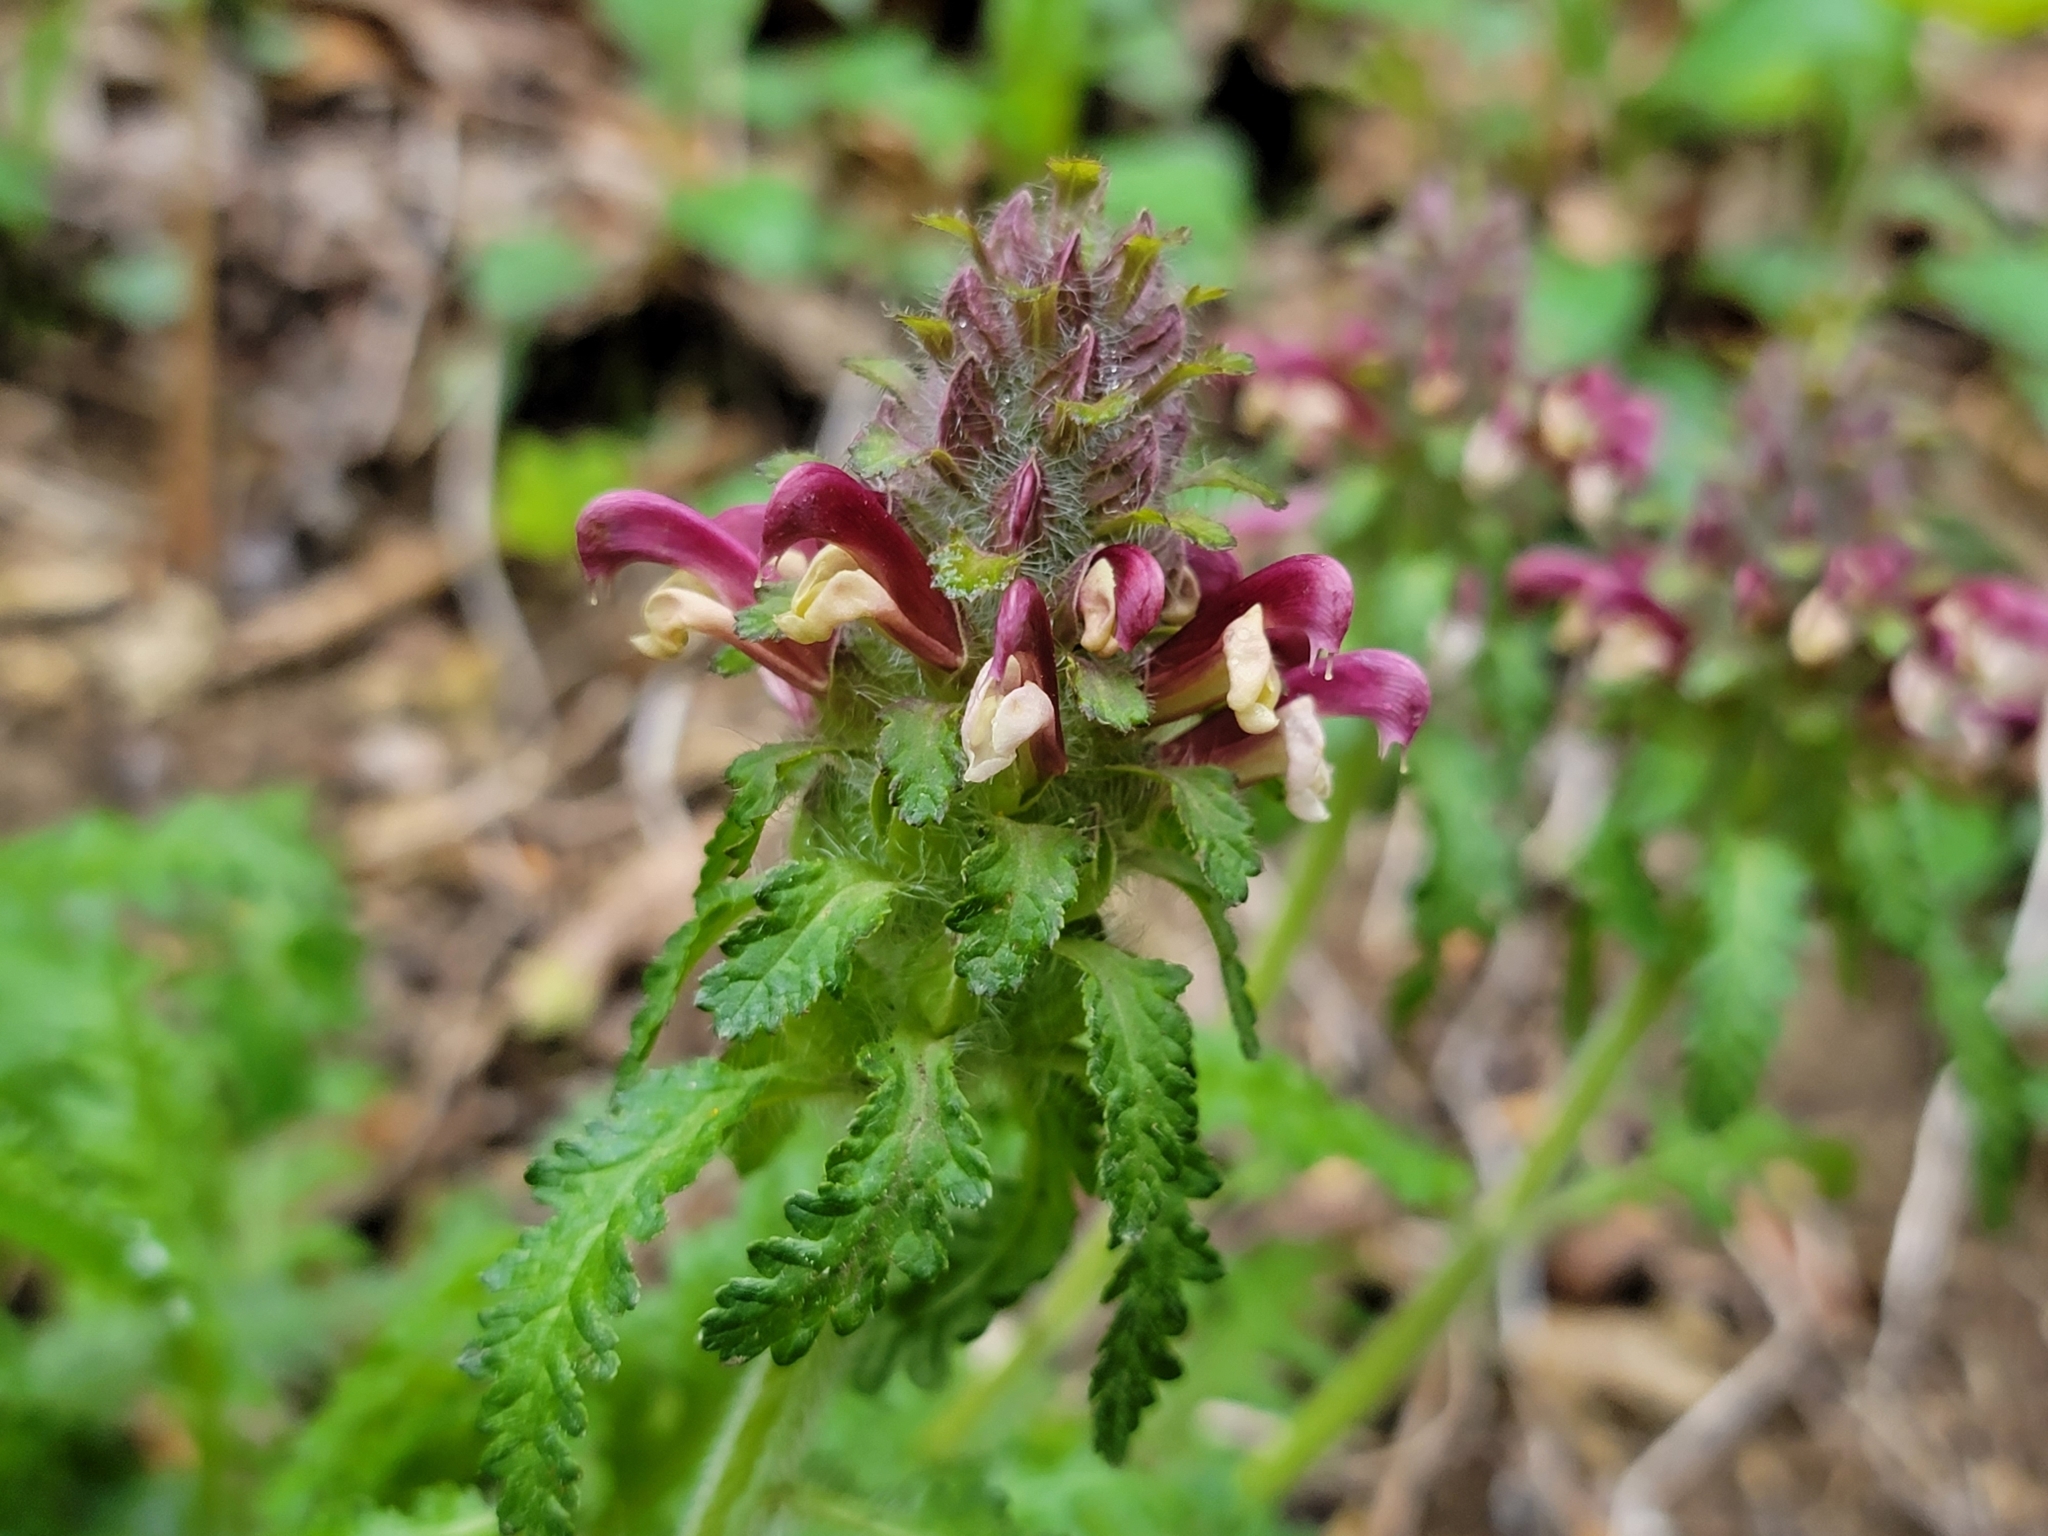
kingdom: Plantae
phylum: Tracheophyta
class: Magnoliopsida
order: Lamiales
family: Orobanchaceae
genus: Pedicularis
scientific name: Pedicularis canadensis
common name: Early lousewort
